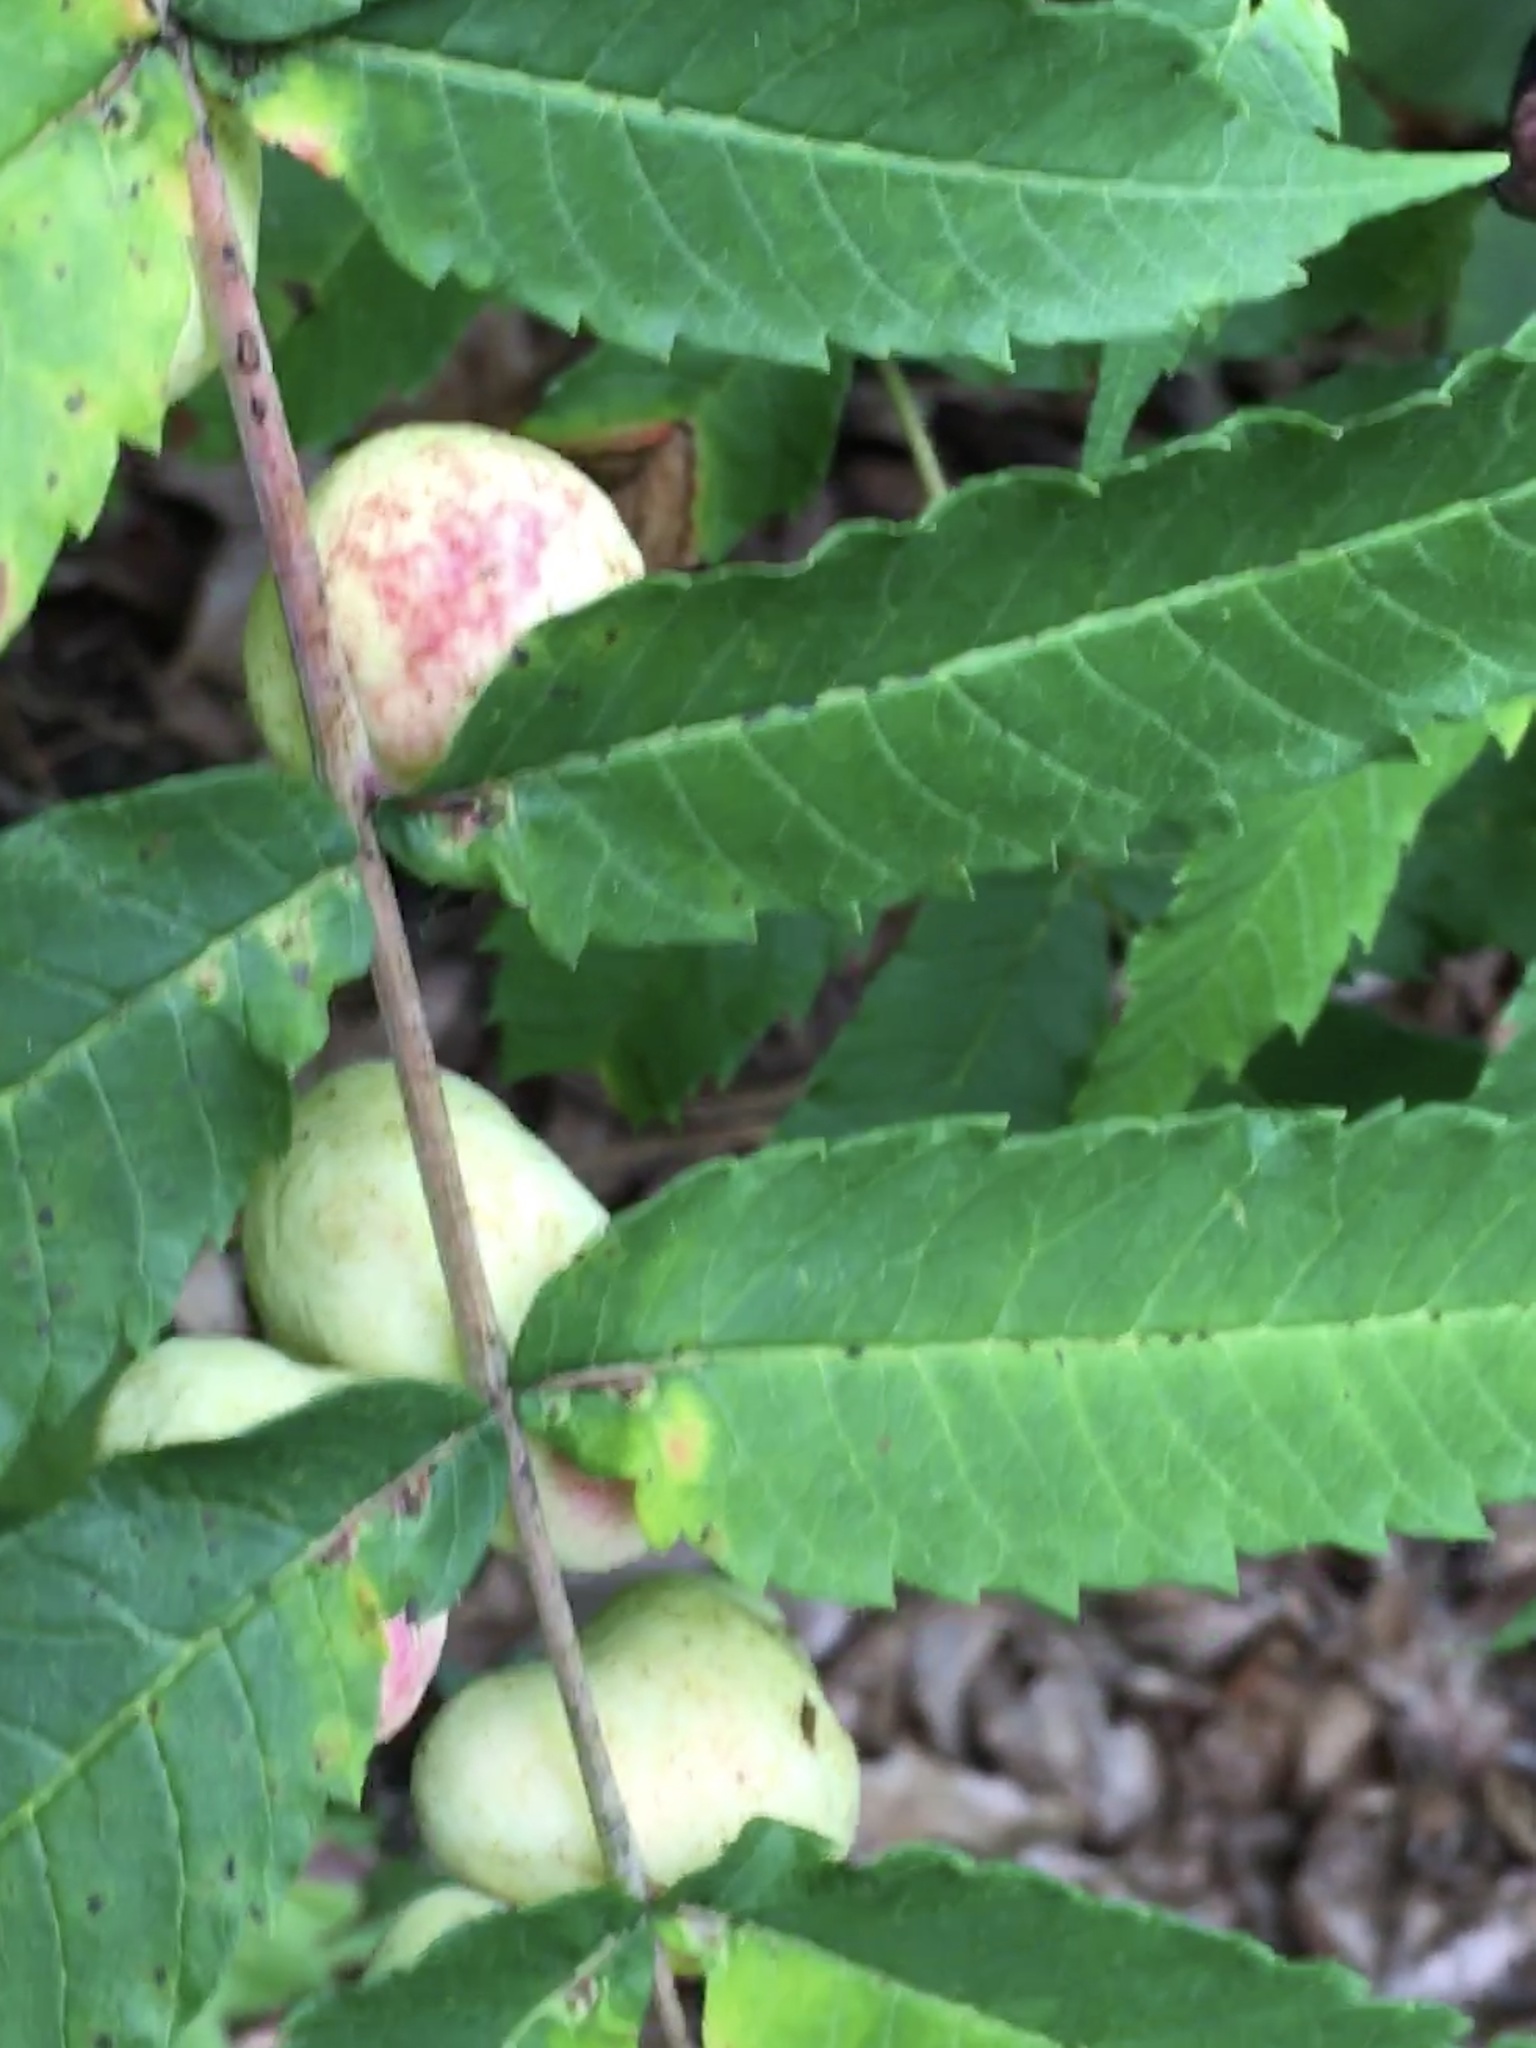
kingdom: Animalia
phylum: Arthropoda
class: Insecta
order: Hemiptera
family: Aphididae
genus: Melaphis
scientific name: Melaphis rhois
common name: Sumac gall aphid
